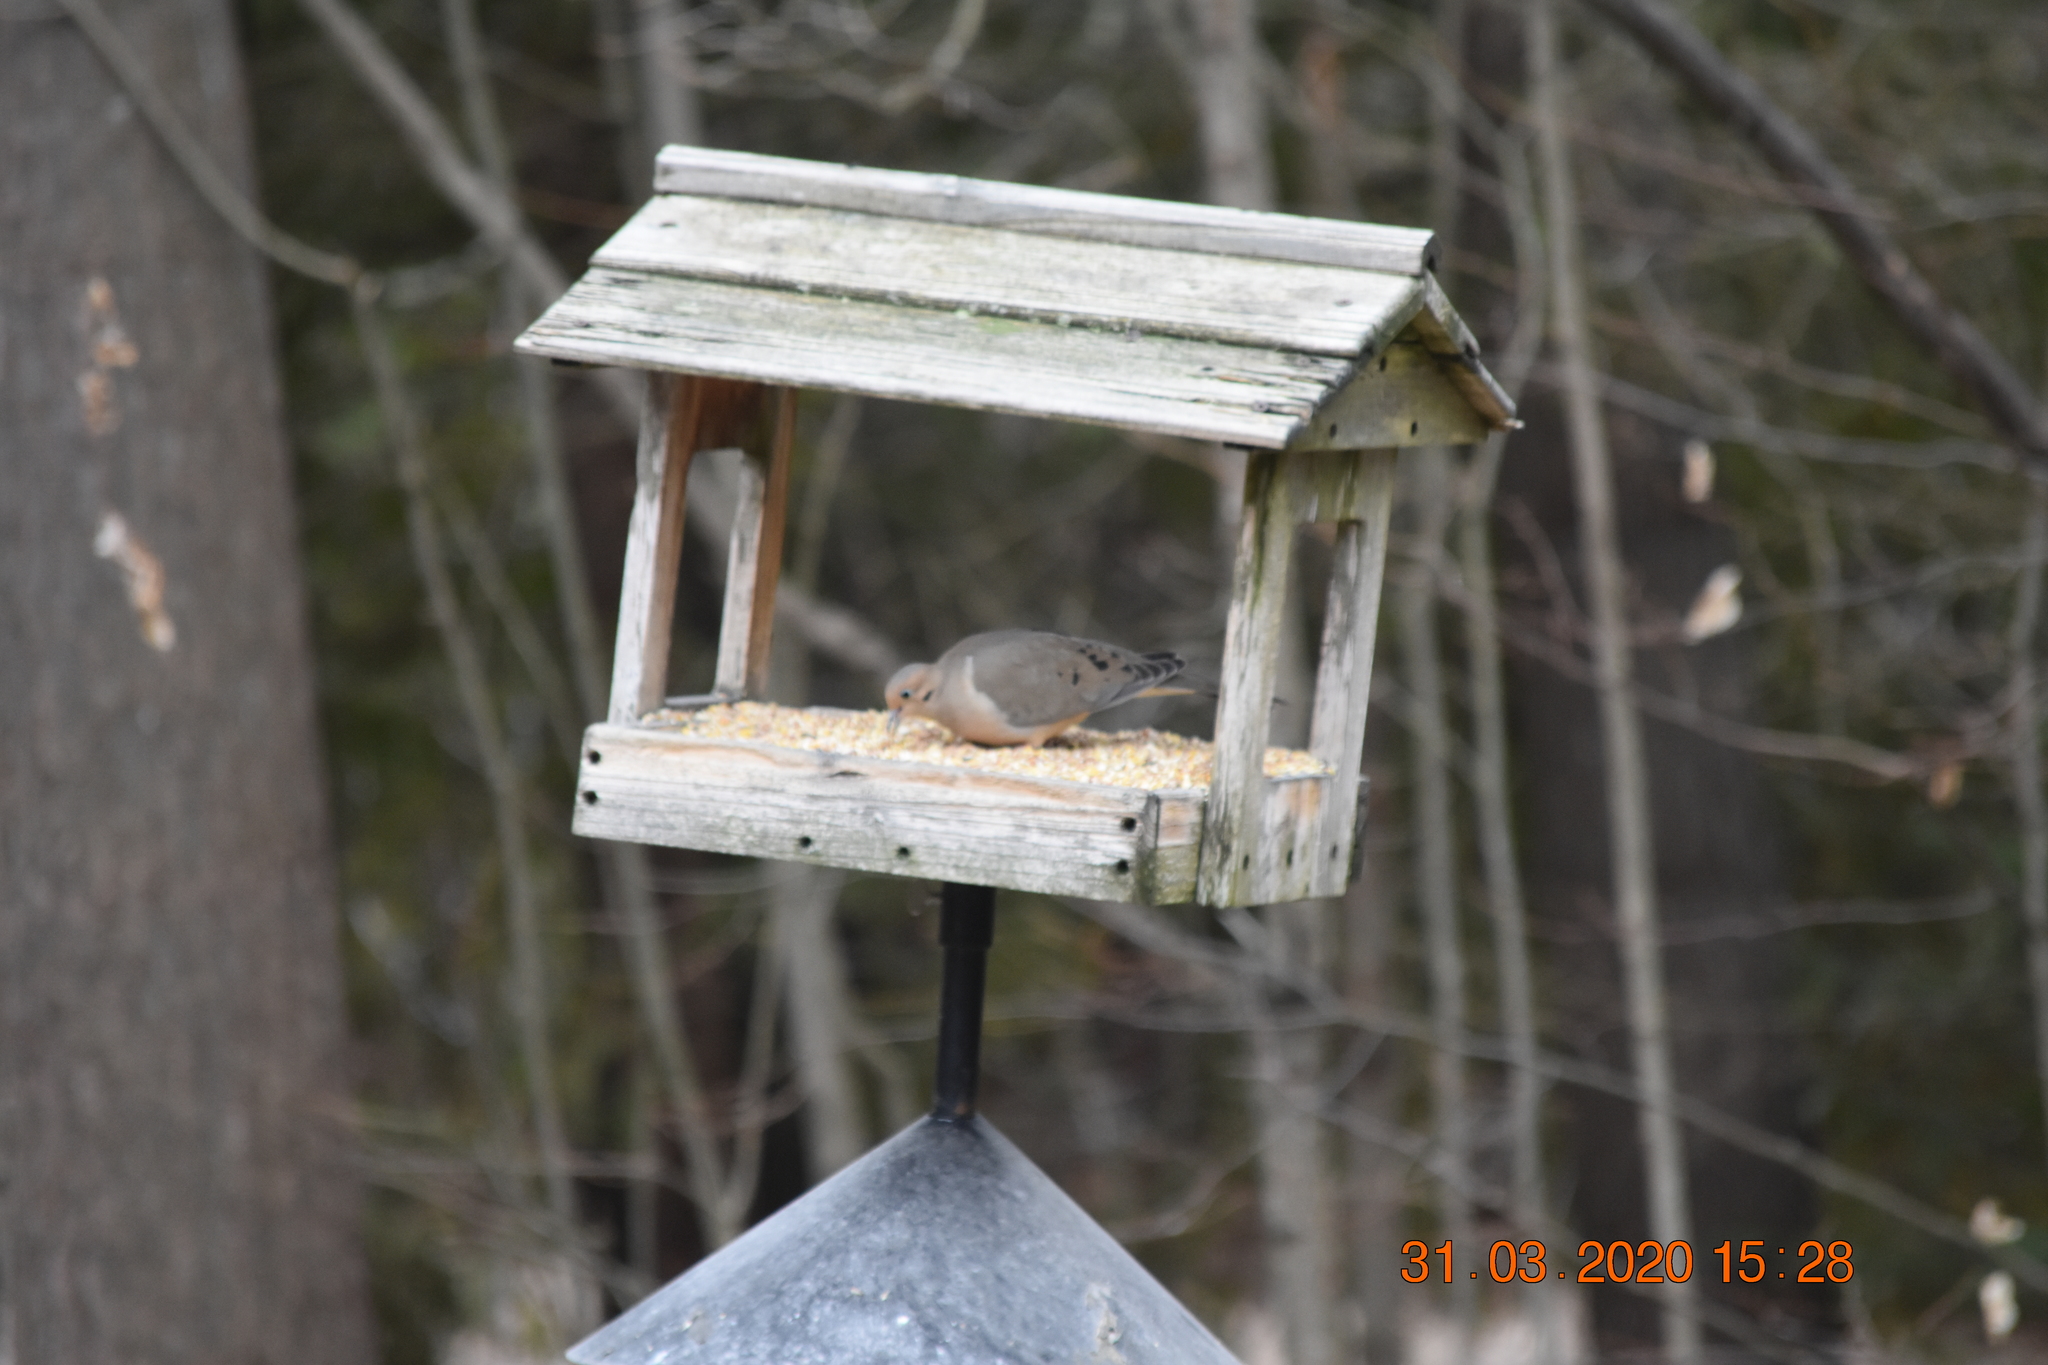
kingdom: Animalia
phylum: Chordata
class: Aves
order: Columbiformes
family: Columbidae
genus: Zenaida
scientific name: Zenaida macroura
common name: Mourning dove
